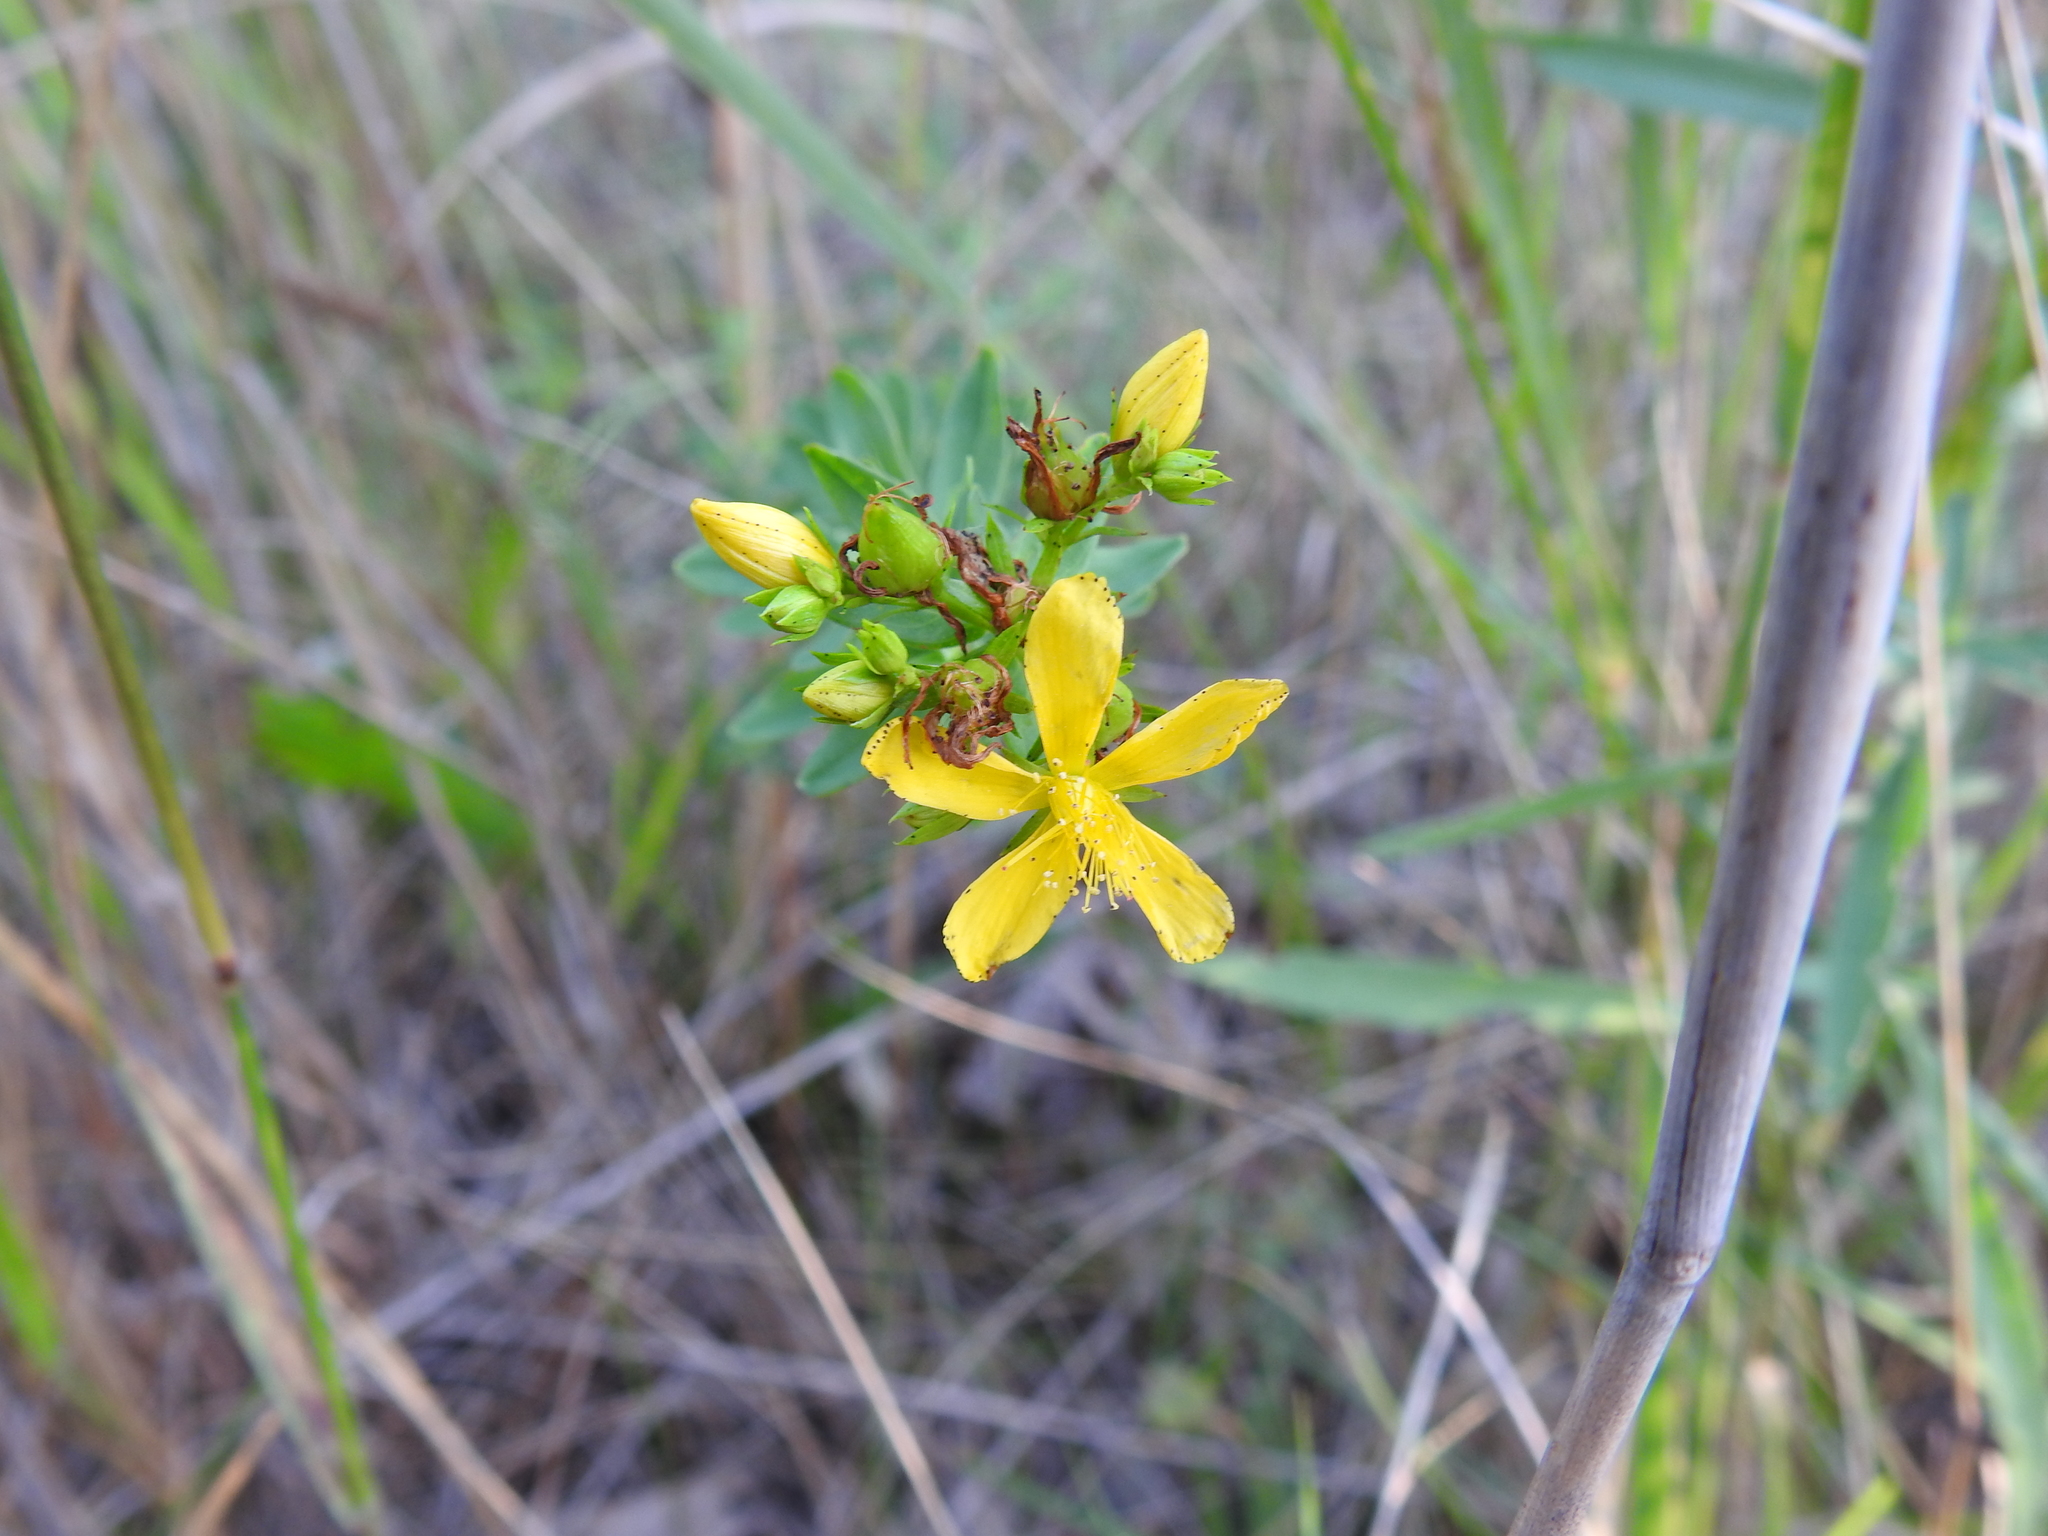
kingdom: Plantae
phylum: Tracheophyta
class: Magnoliopsida
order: Malpighiales
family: Hypericaceae
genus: Hypericum
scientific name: Hypericum perforatum
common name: Common st. johnswort
